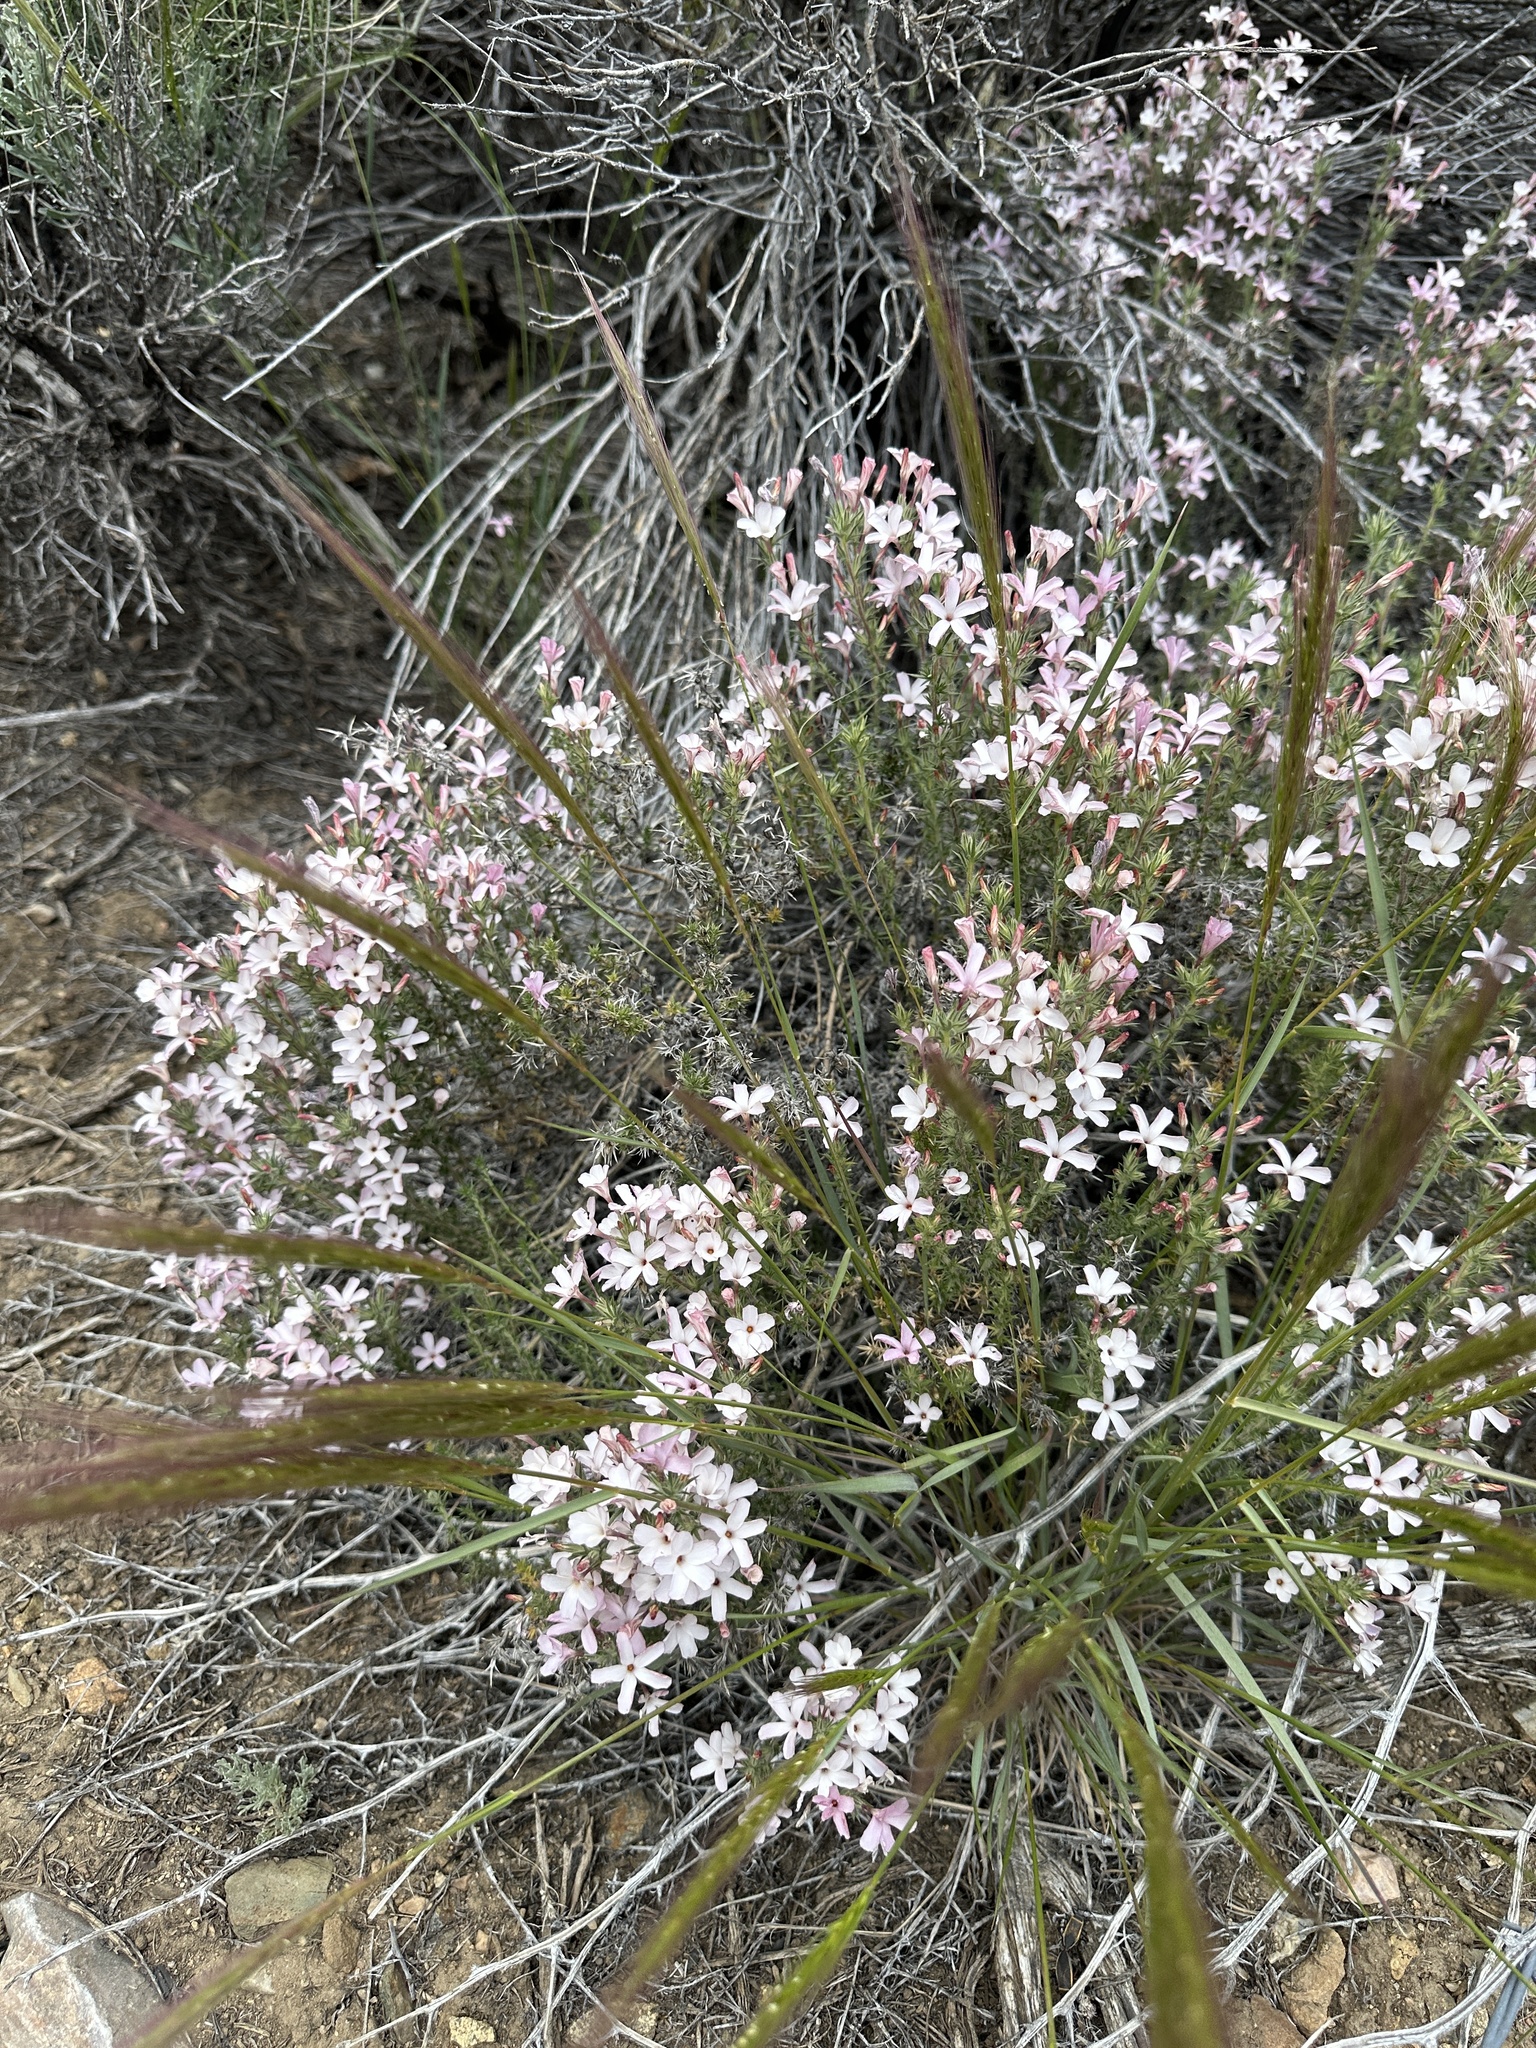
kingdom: Plantae
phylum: Tracheophyta
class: Magnoliopsida
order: Ericales
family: Polemoniaceae
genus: Linanthus
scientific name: Linanthus pungens
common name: Granite prickly phlox
